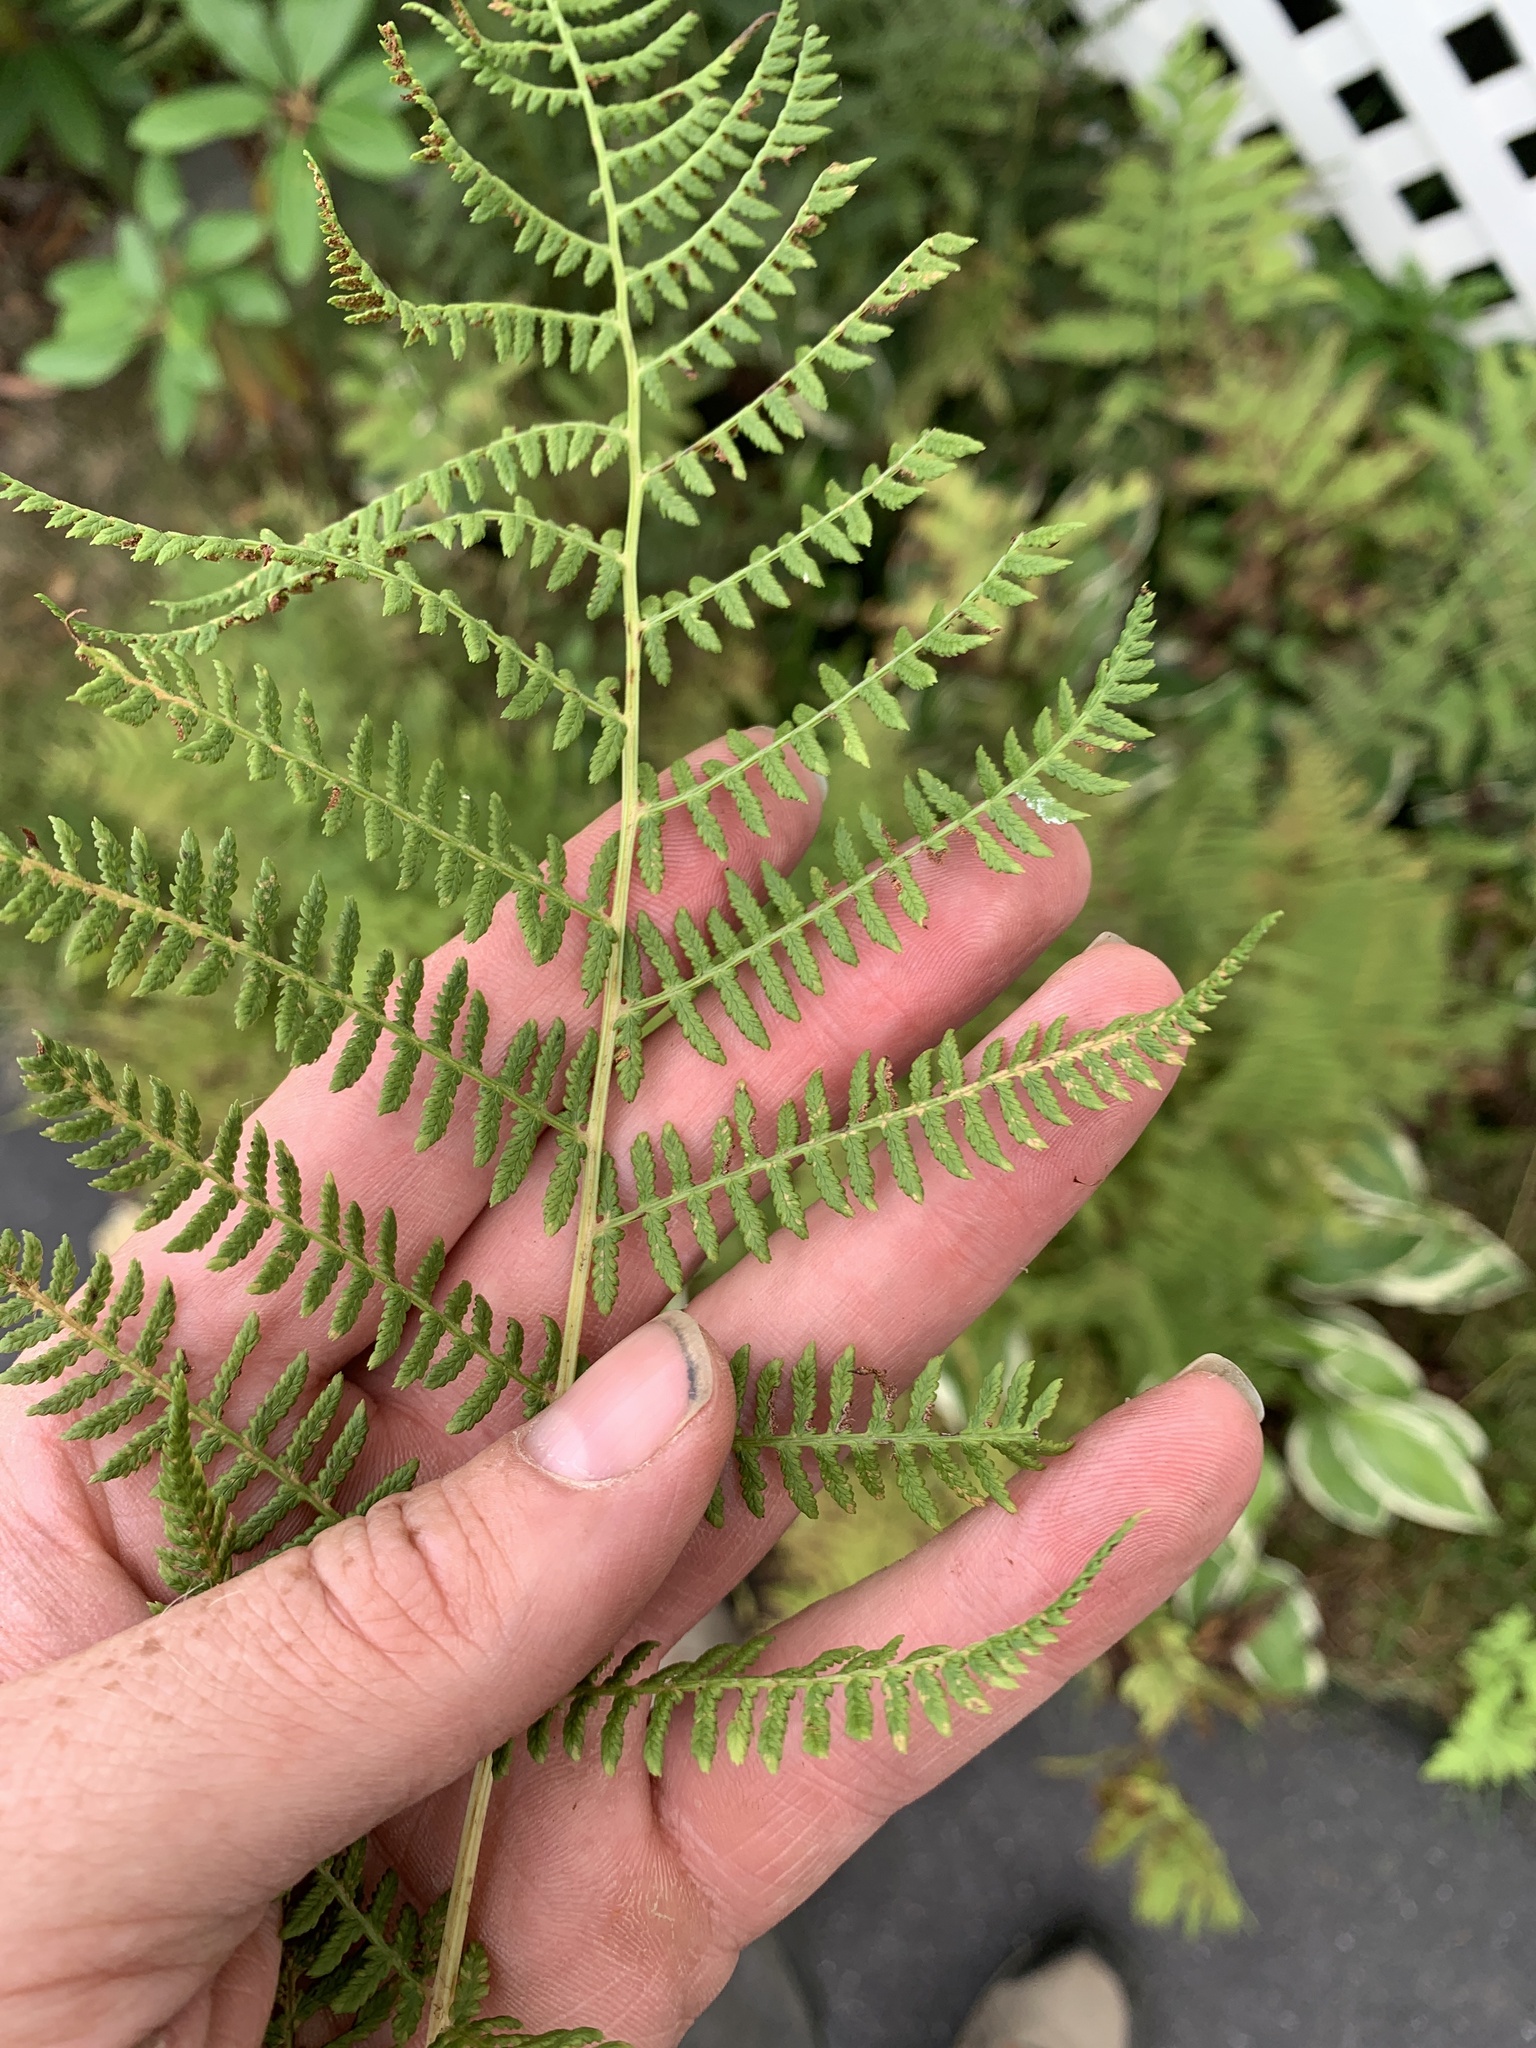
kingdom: Plantae
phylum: Tracheophyta
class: Polypodiopsida
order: Polypodiales
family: Athyriaceae
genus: Athyrium
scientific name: Athyrium angustum
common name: Northern lady fern
